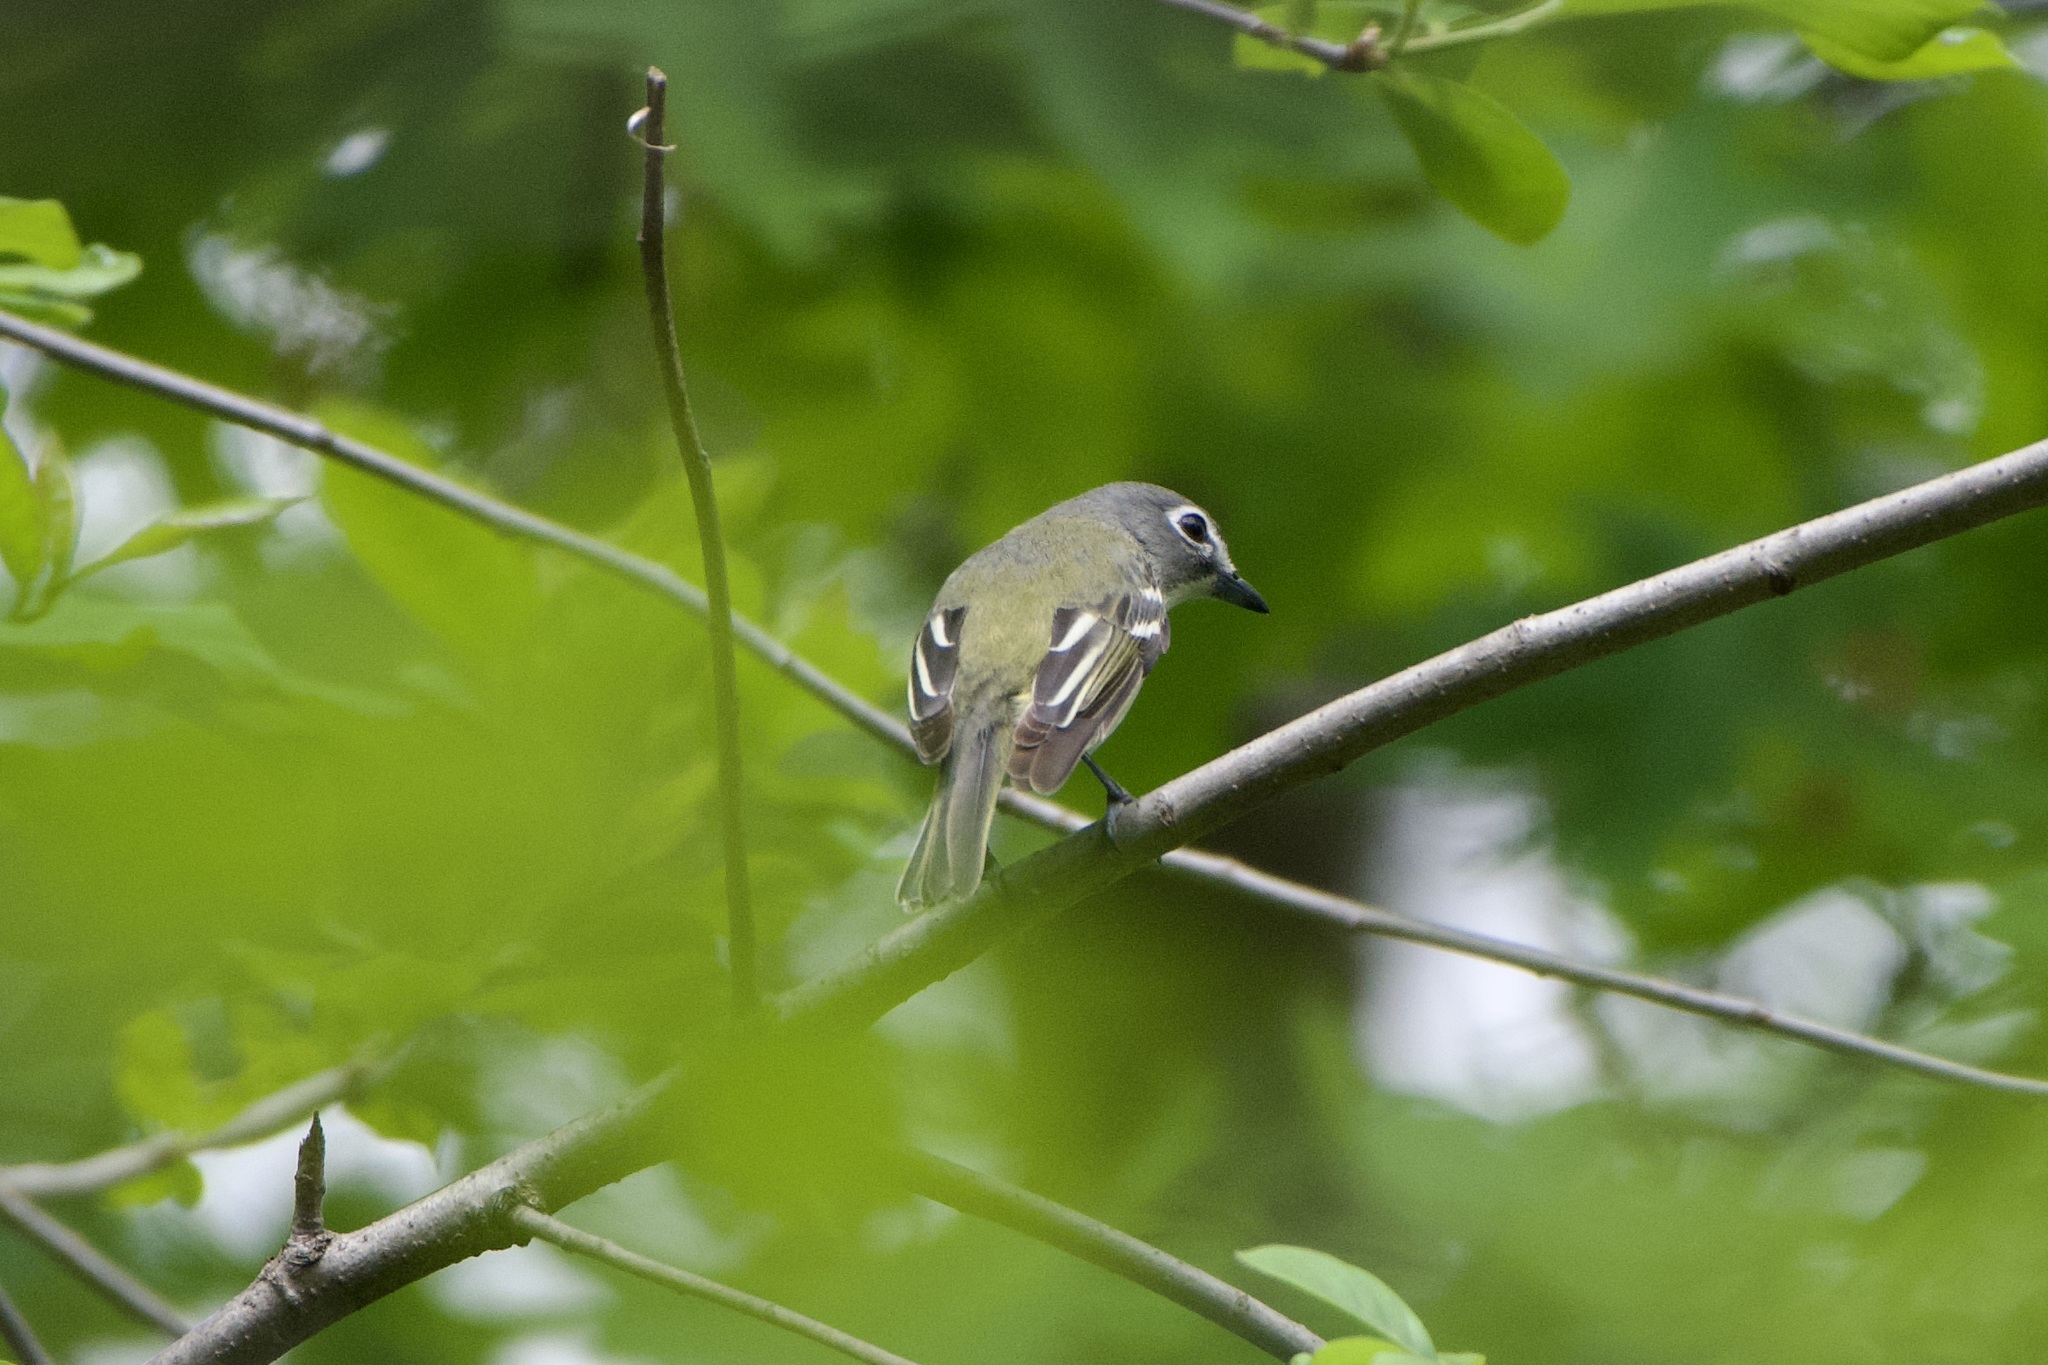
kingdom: Animalia
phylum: Chordata
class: Aves
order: Passeriformes
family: Vireonidae
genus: Vireo
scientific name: Vireo solitarius
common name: Blue-headed vireo
